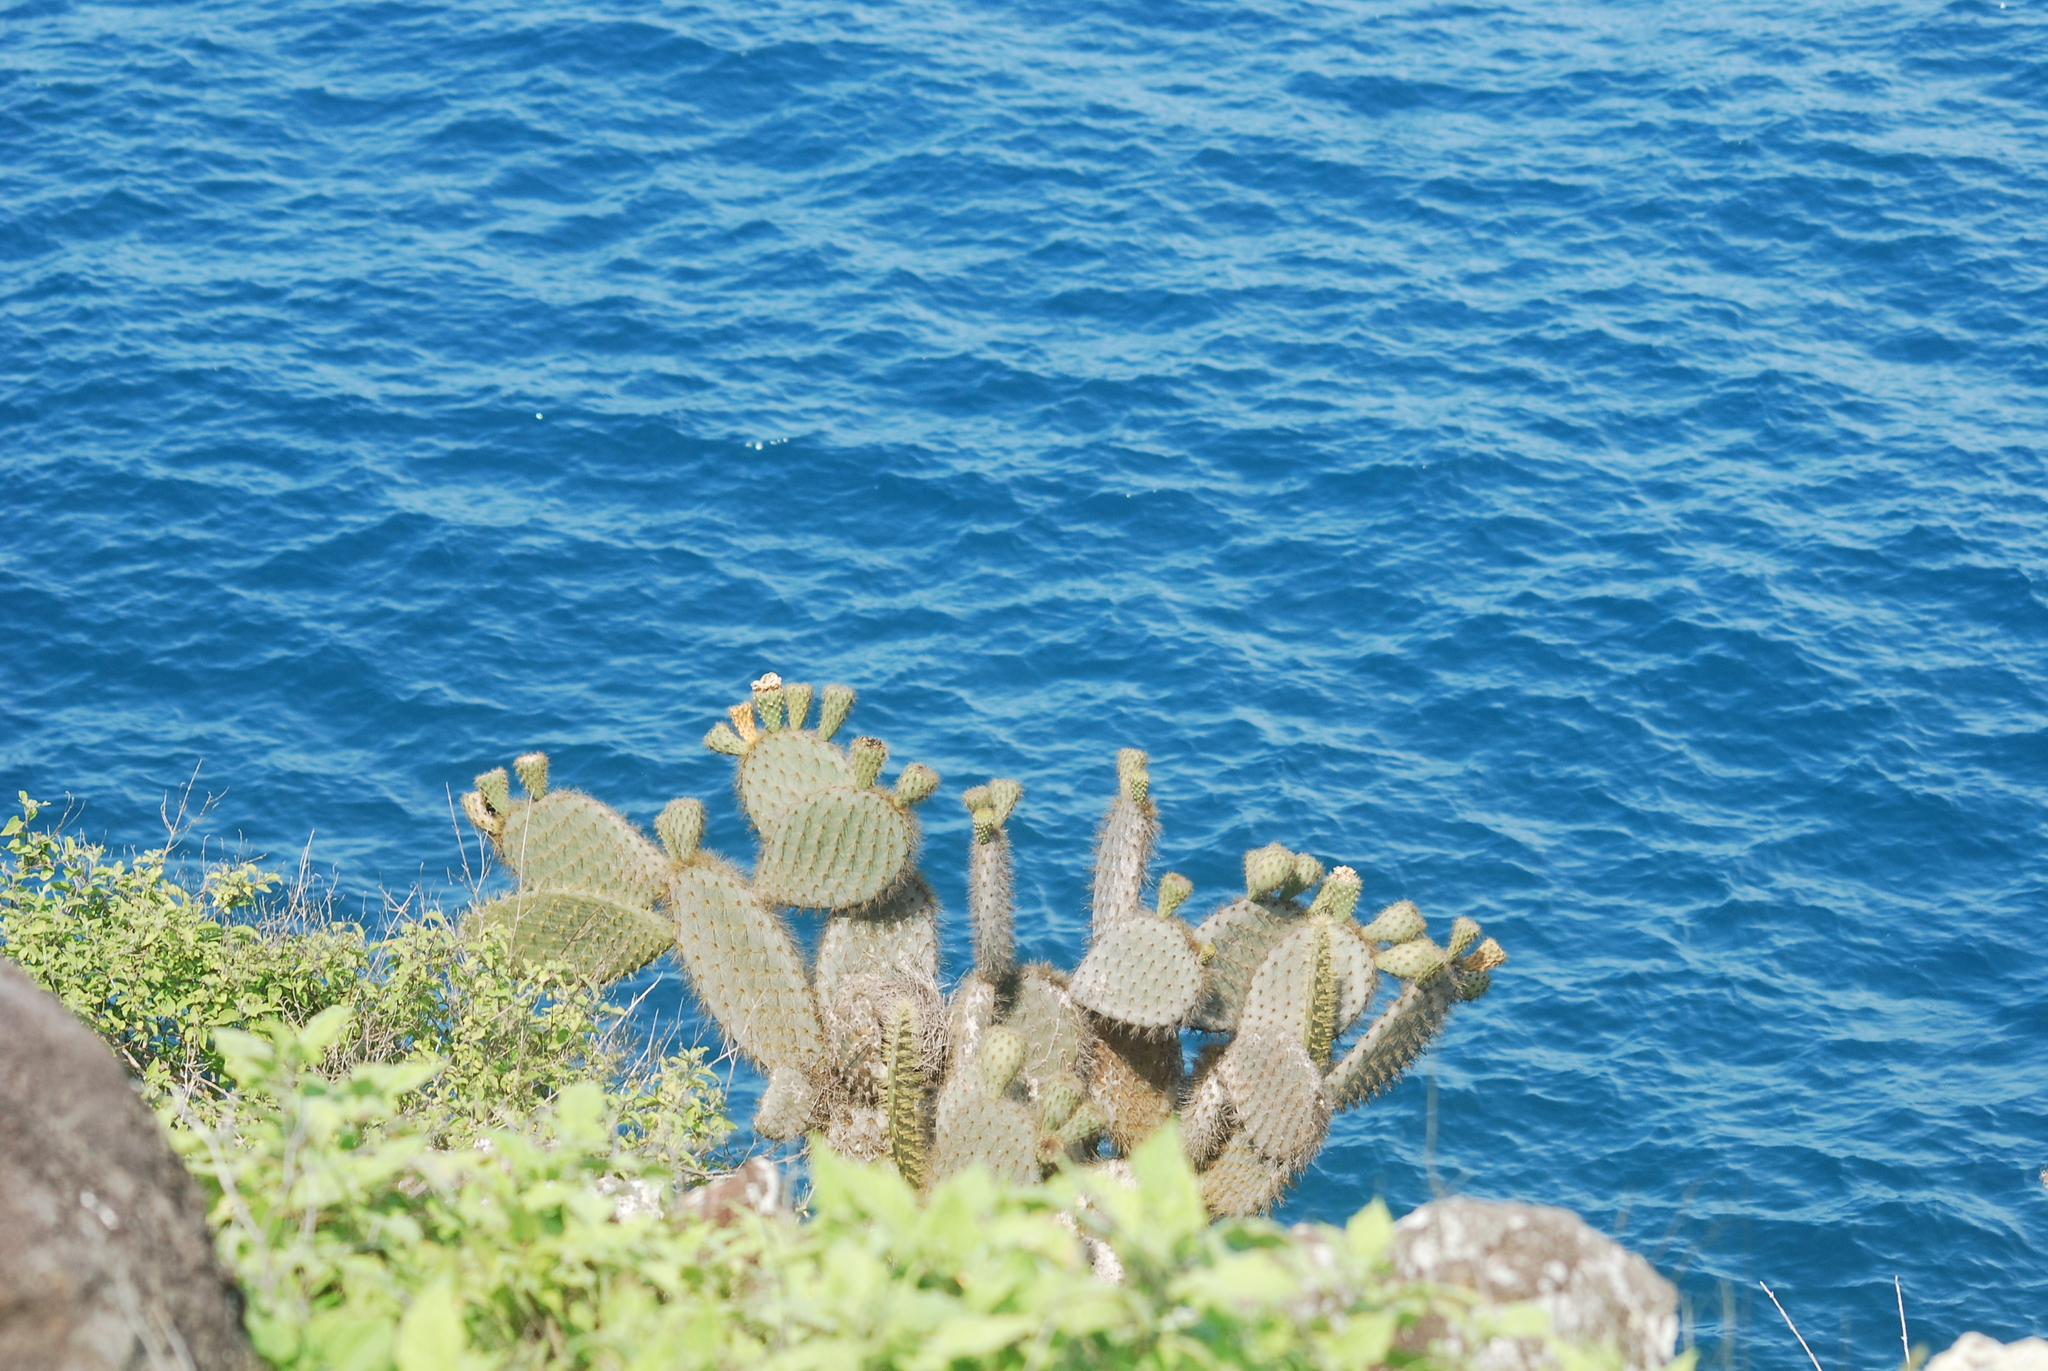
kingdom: Plantae
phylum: Tracheophyta
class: Magnoliopsida
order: Caryophyllales
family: Cactaceae
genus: Opuntia
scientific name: Opuntia galapageia
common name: Galápagos prickly pear
